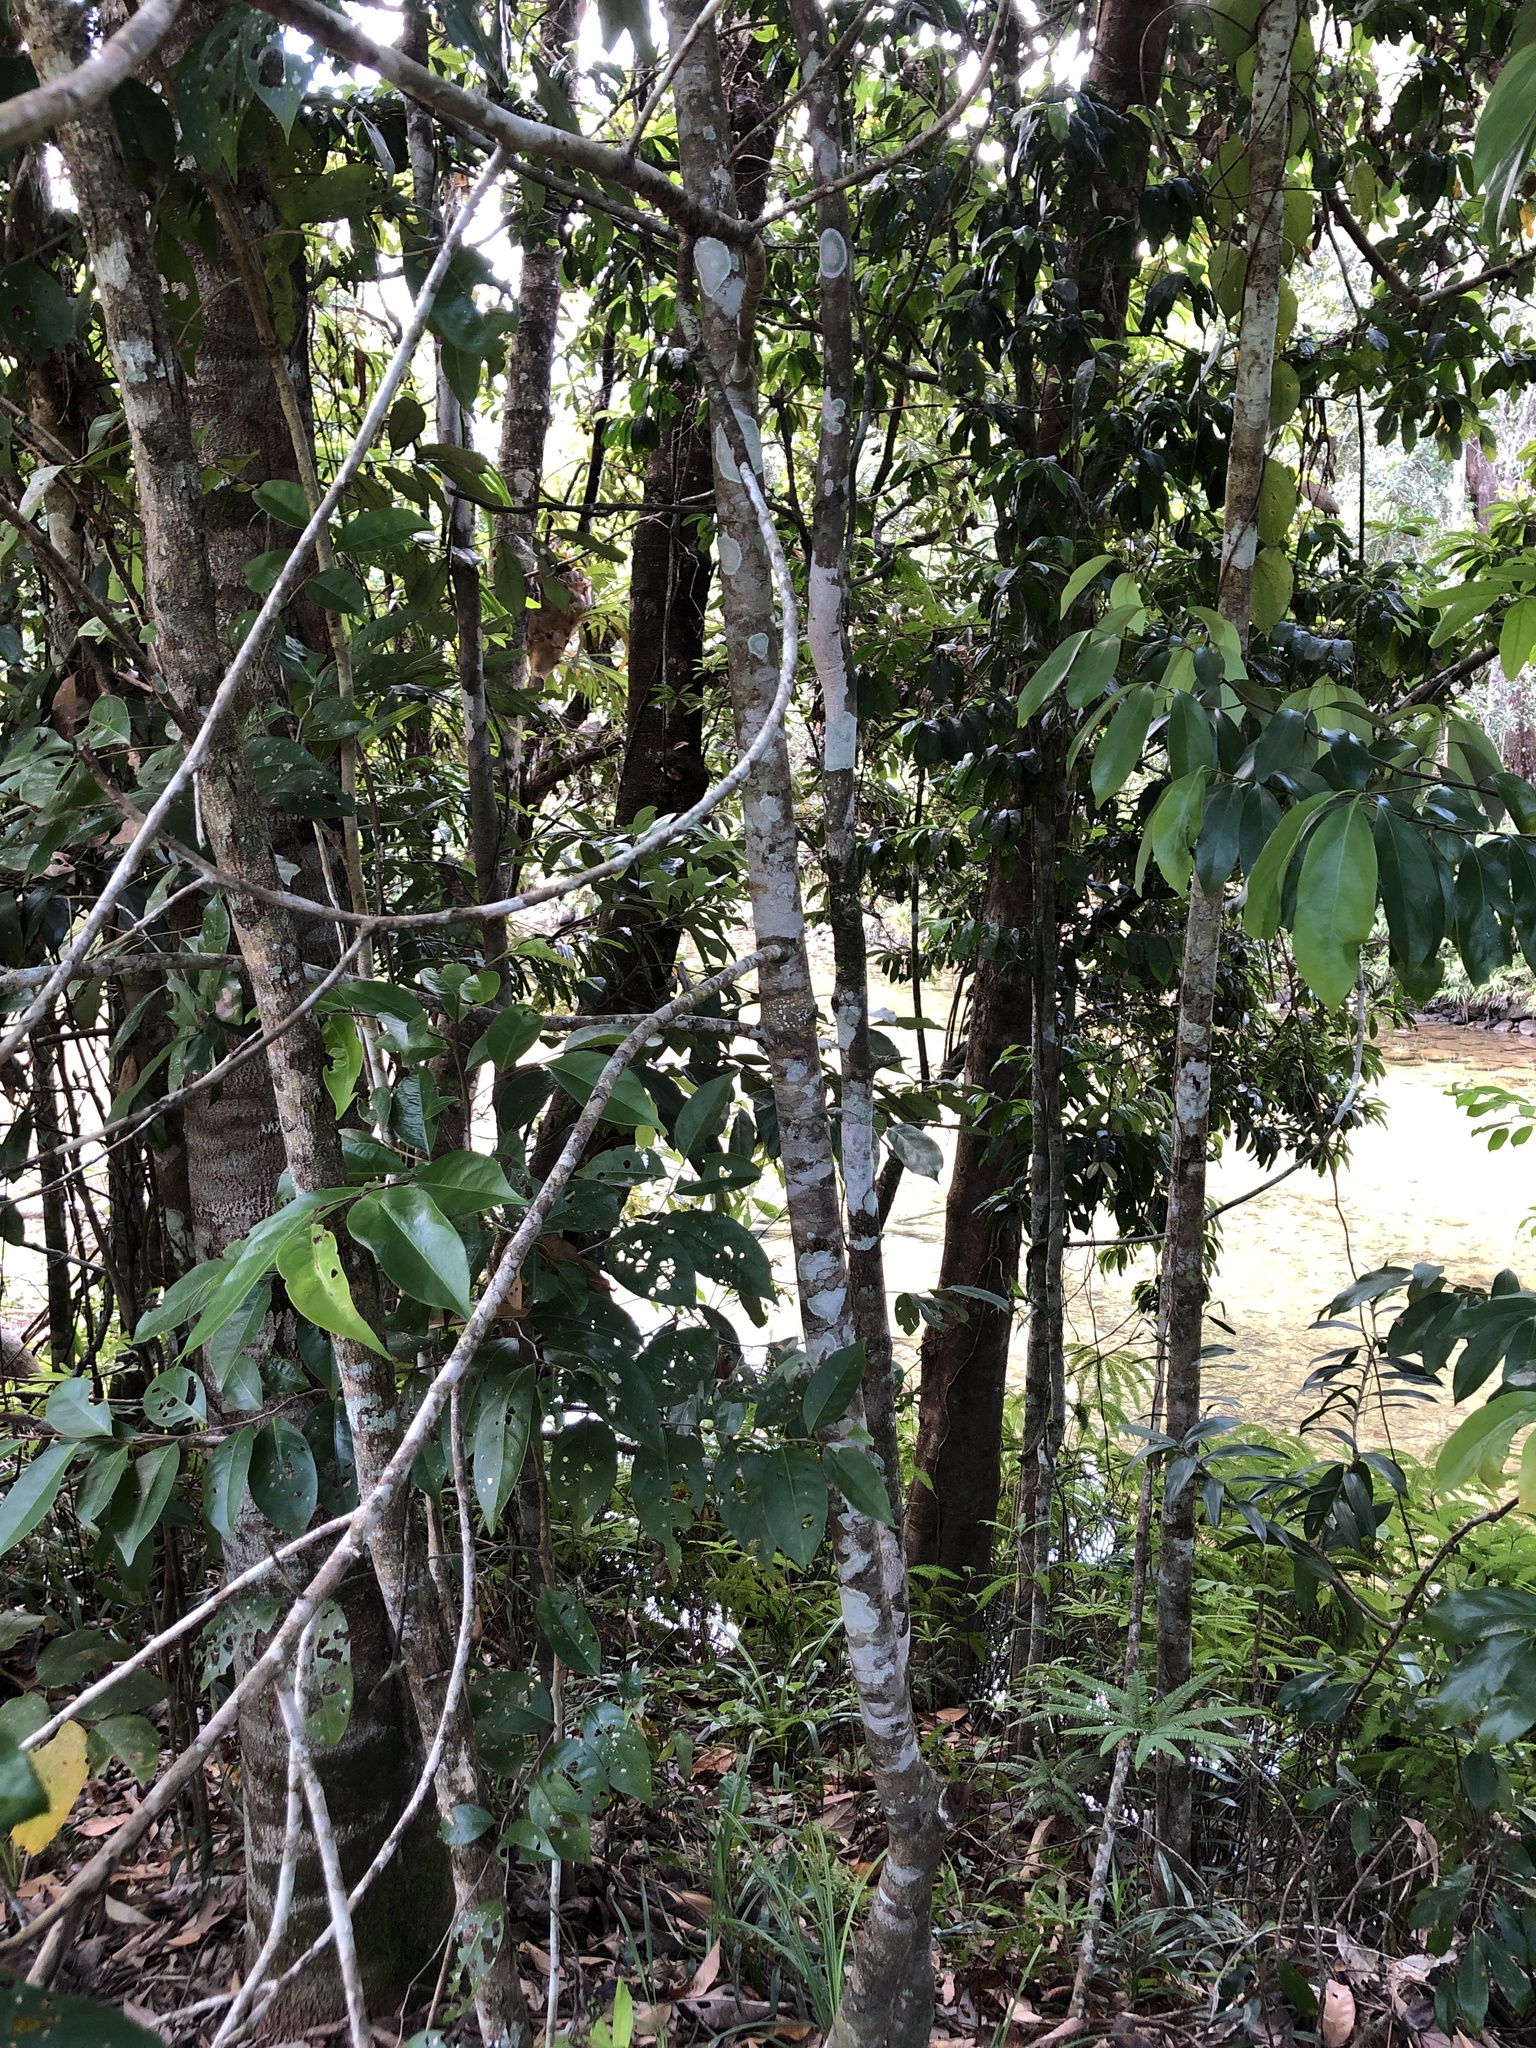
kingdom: Plantae
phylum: Tracheophyta
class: Magnoliopsida
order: Rosales
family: Rhamnaceae
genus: Alphitonia
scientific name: Alphitonia whitei
